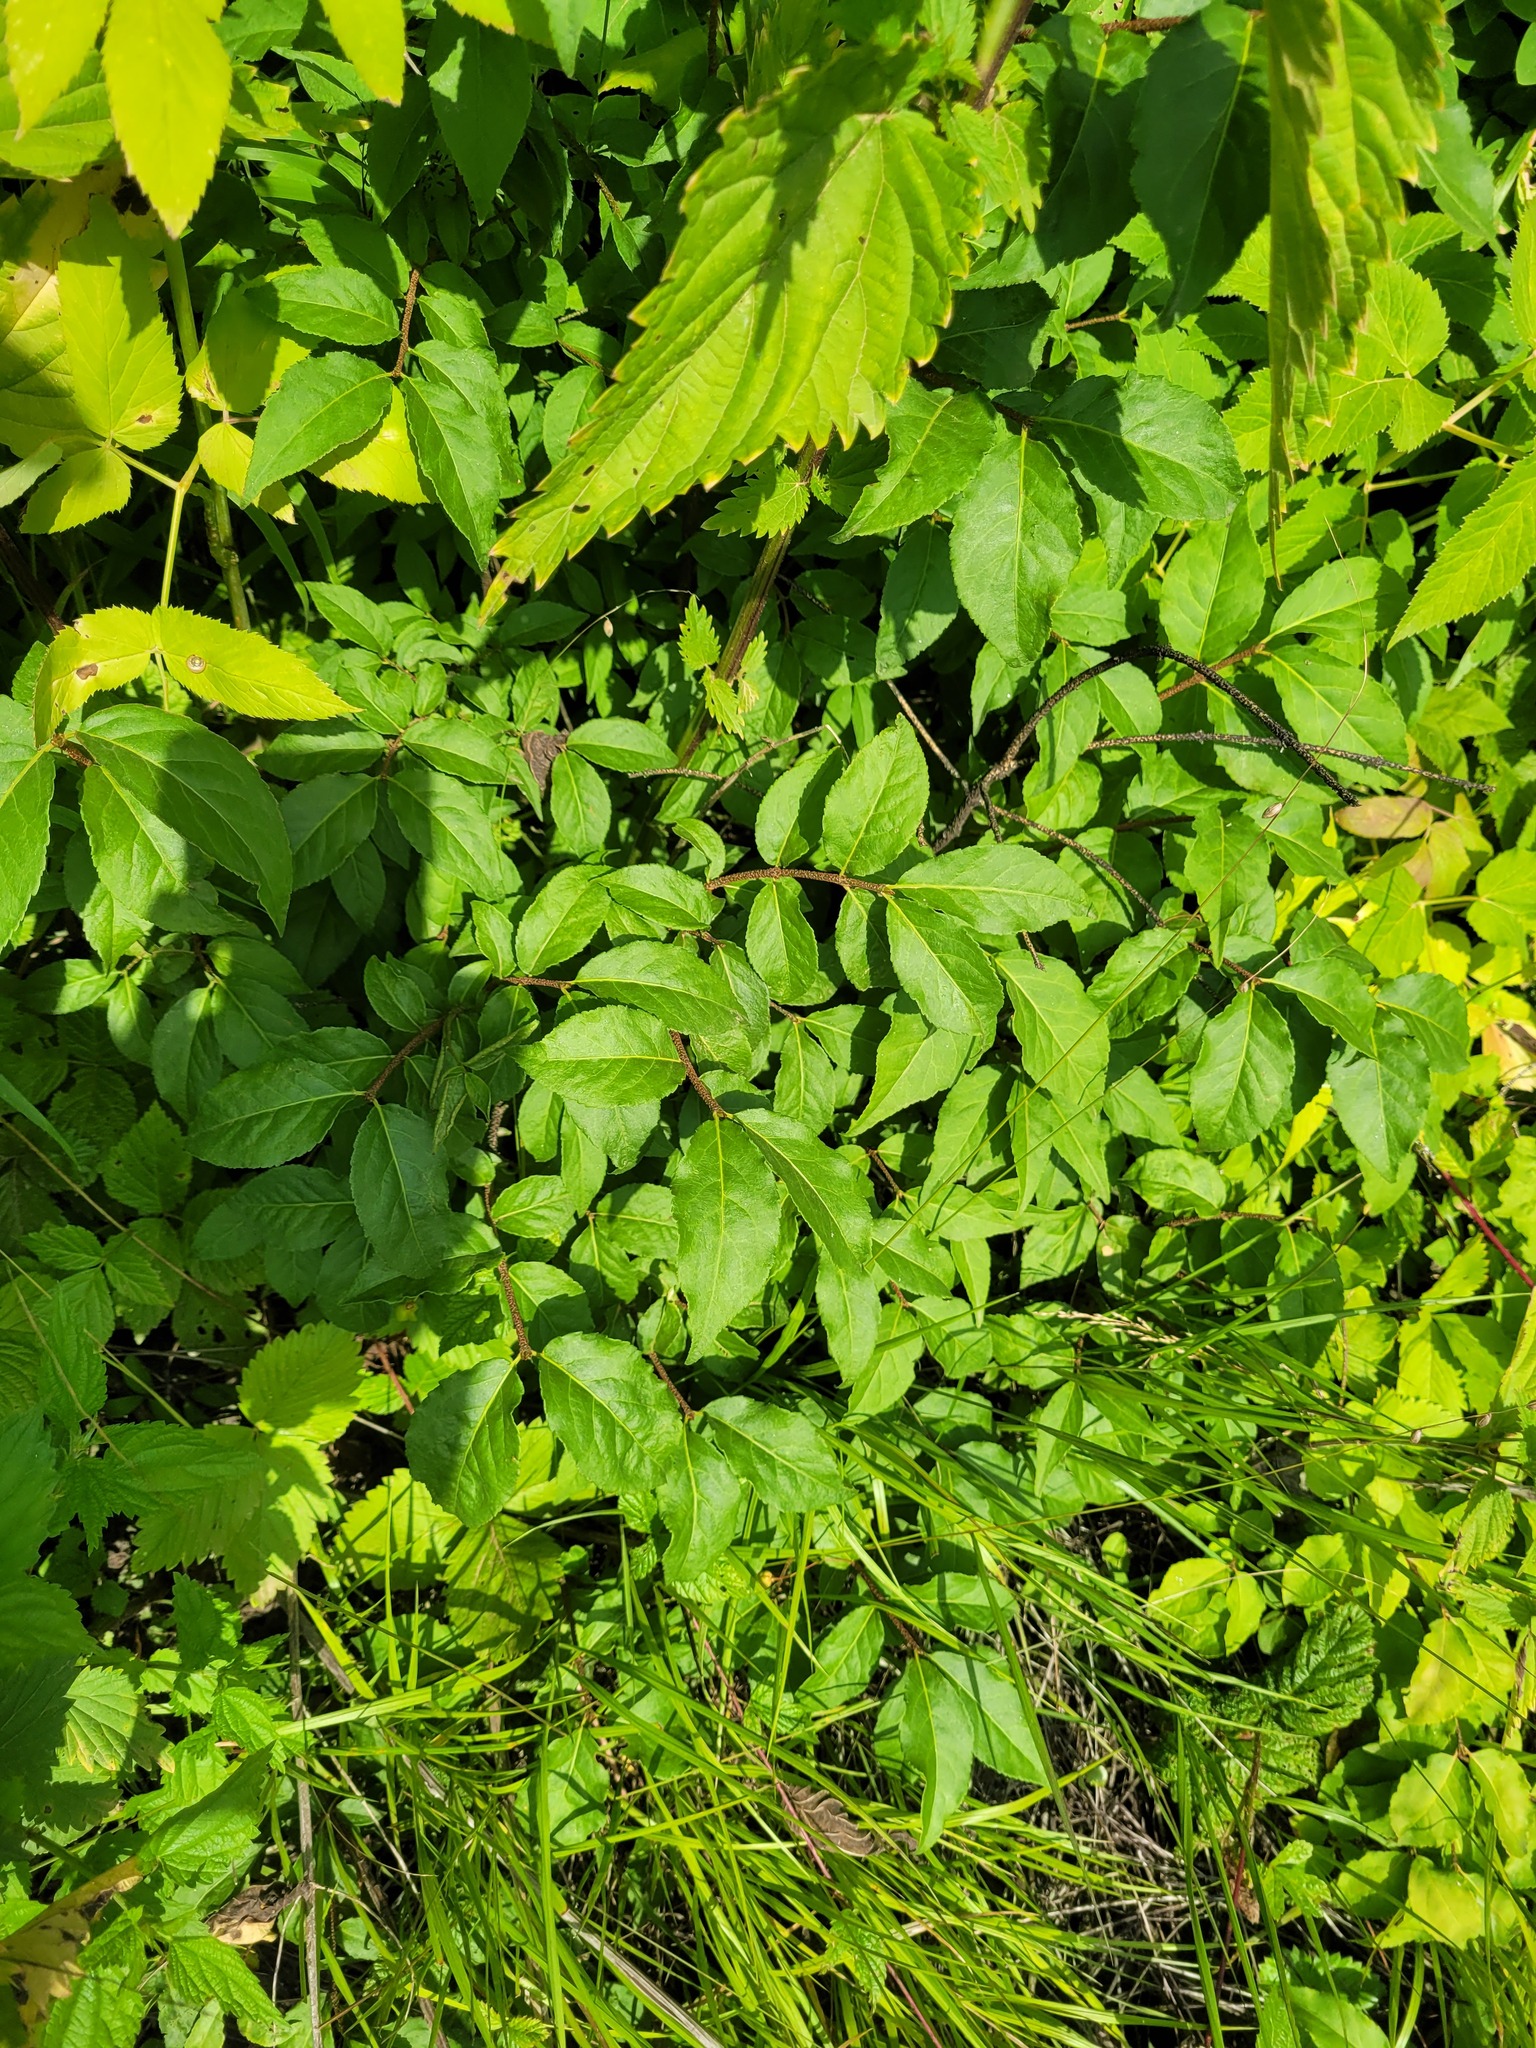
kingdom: Plantae
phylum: Tracheophyta
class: Magnoliopsida
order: Celastrales
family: Celastraceae
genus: Euonymus
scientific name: Euonymus verrucosus
